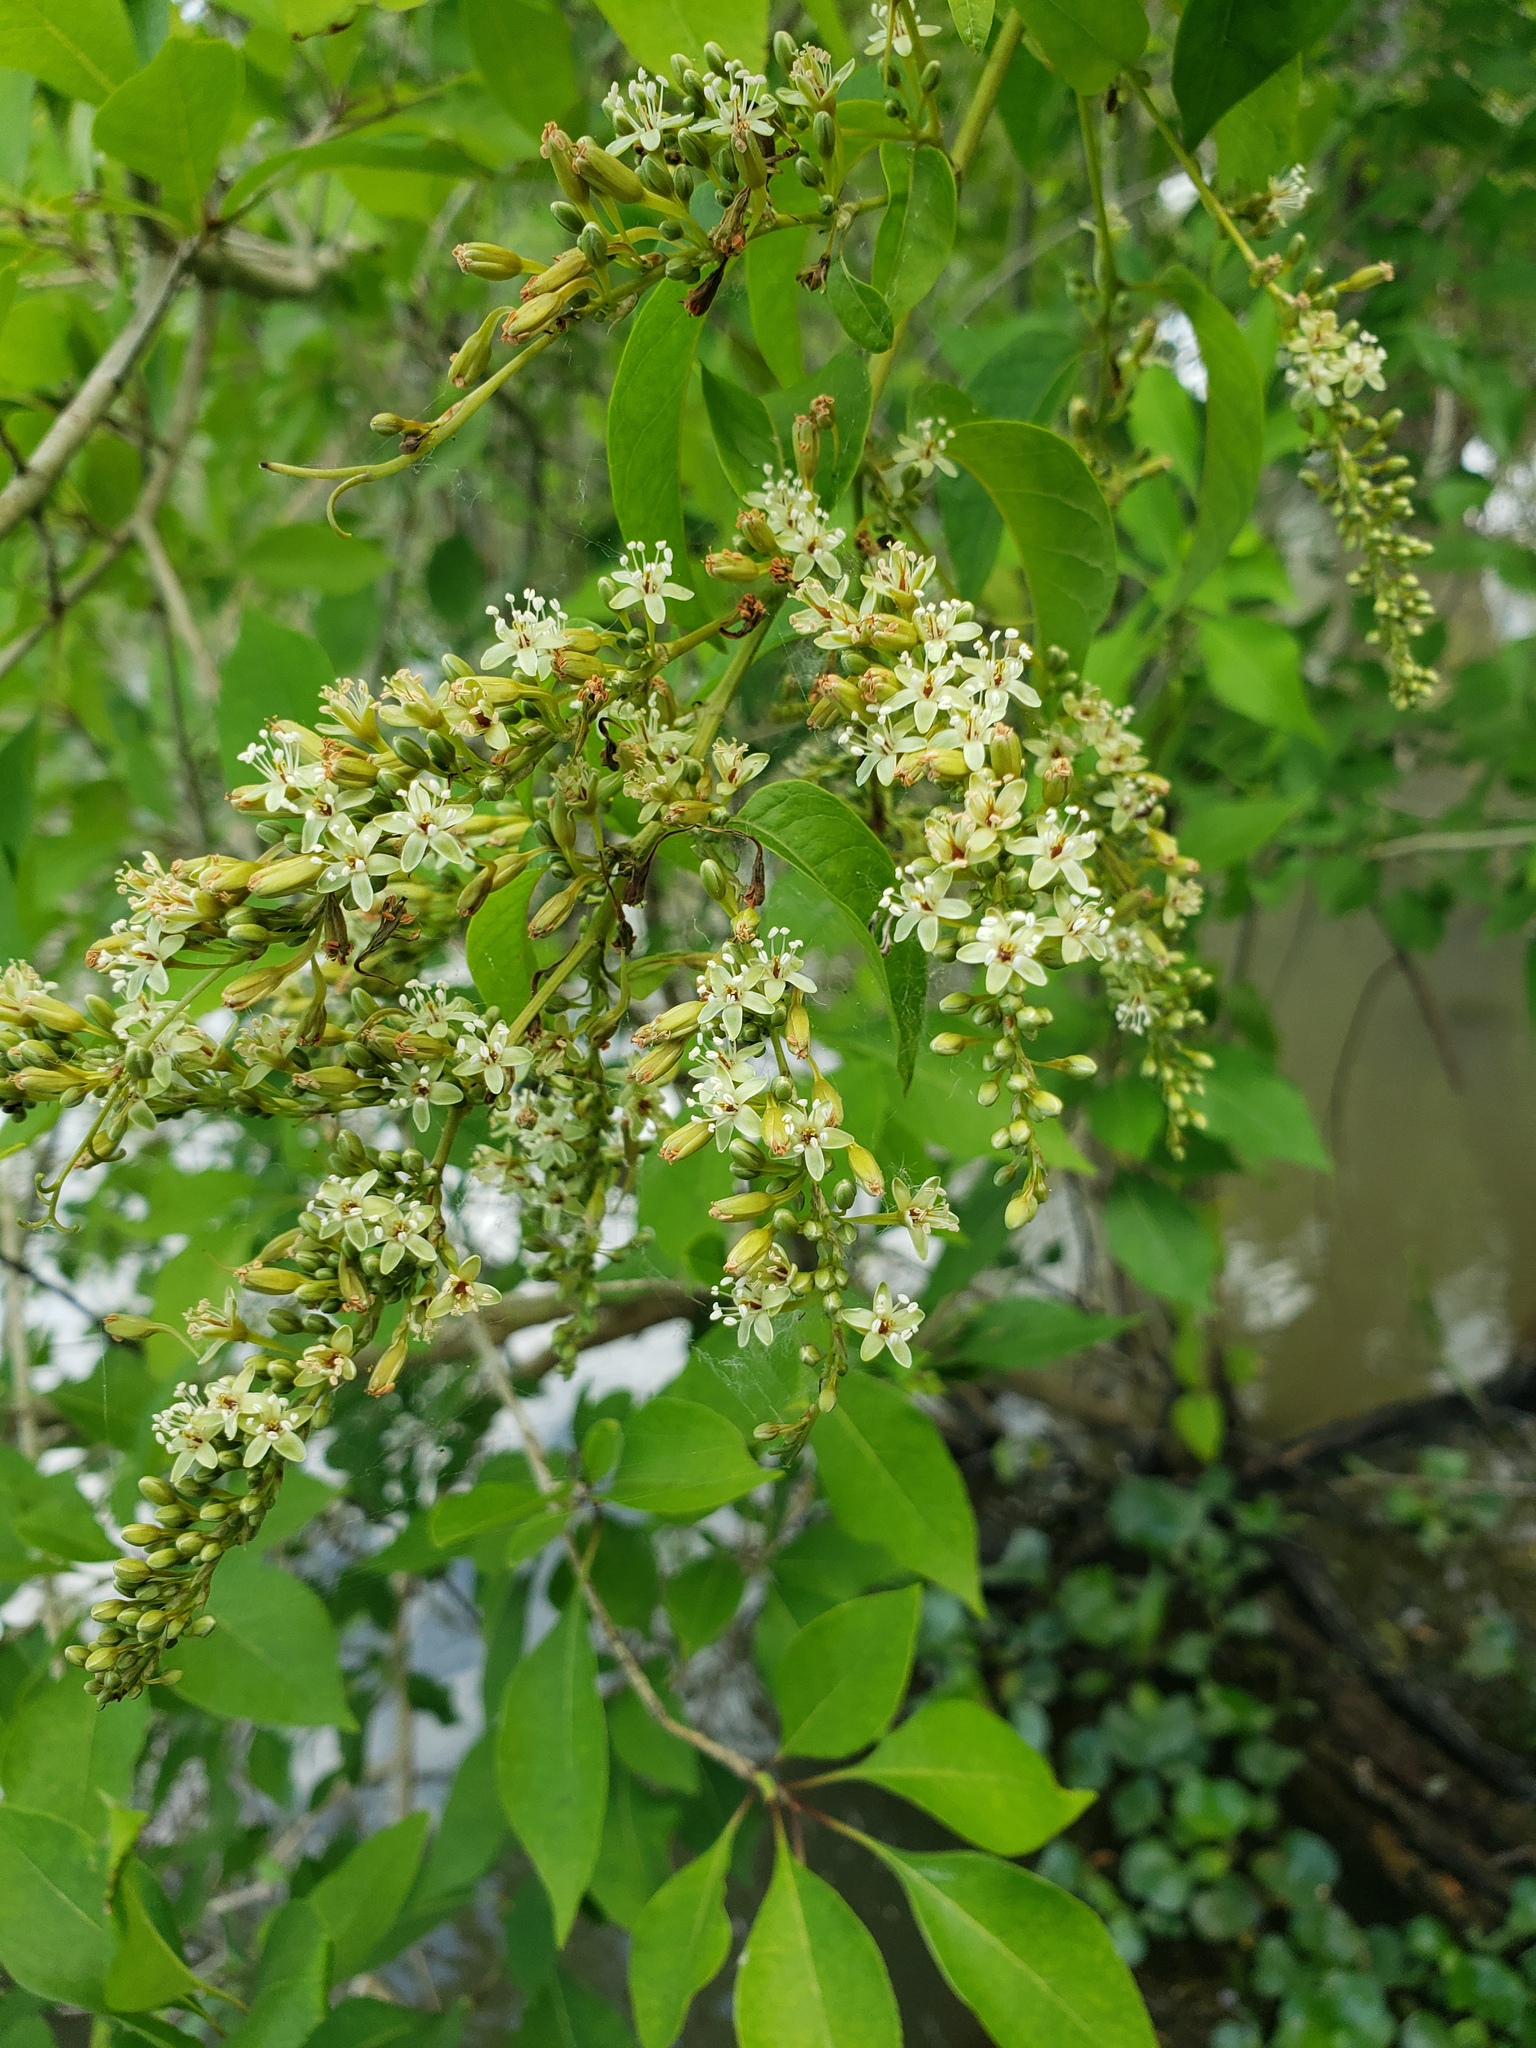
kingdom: Plantae
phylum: Tracheophyta
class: Magnoliopsida
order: Caryophyllales
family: Polygonaceae
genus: Brunnichia
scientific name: Brunnichia ovata
